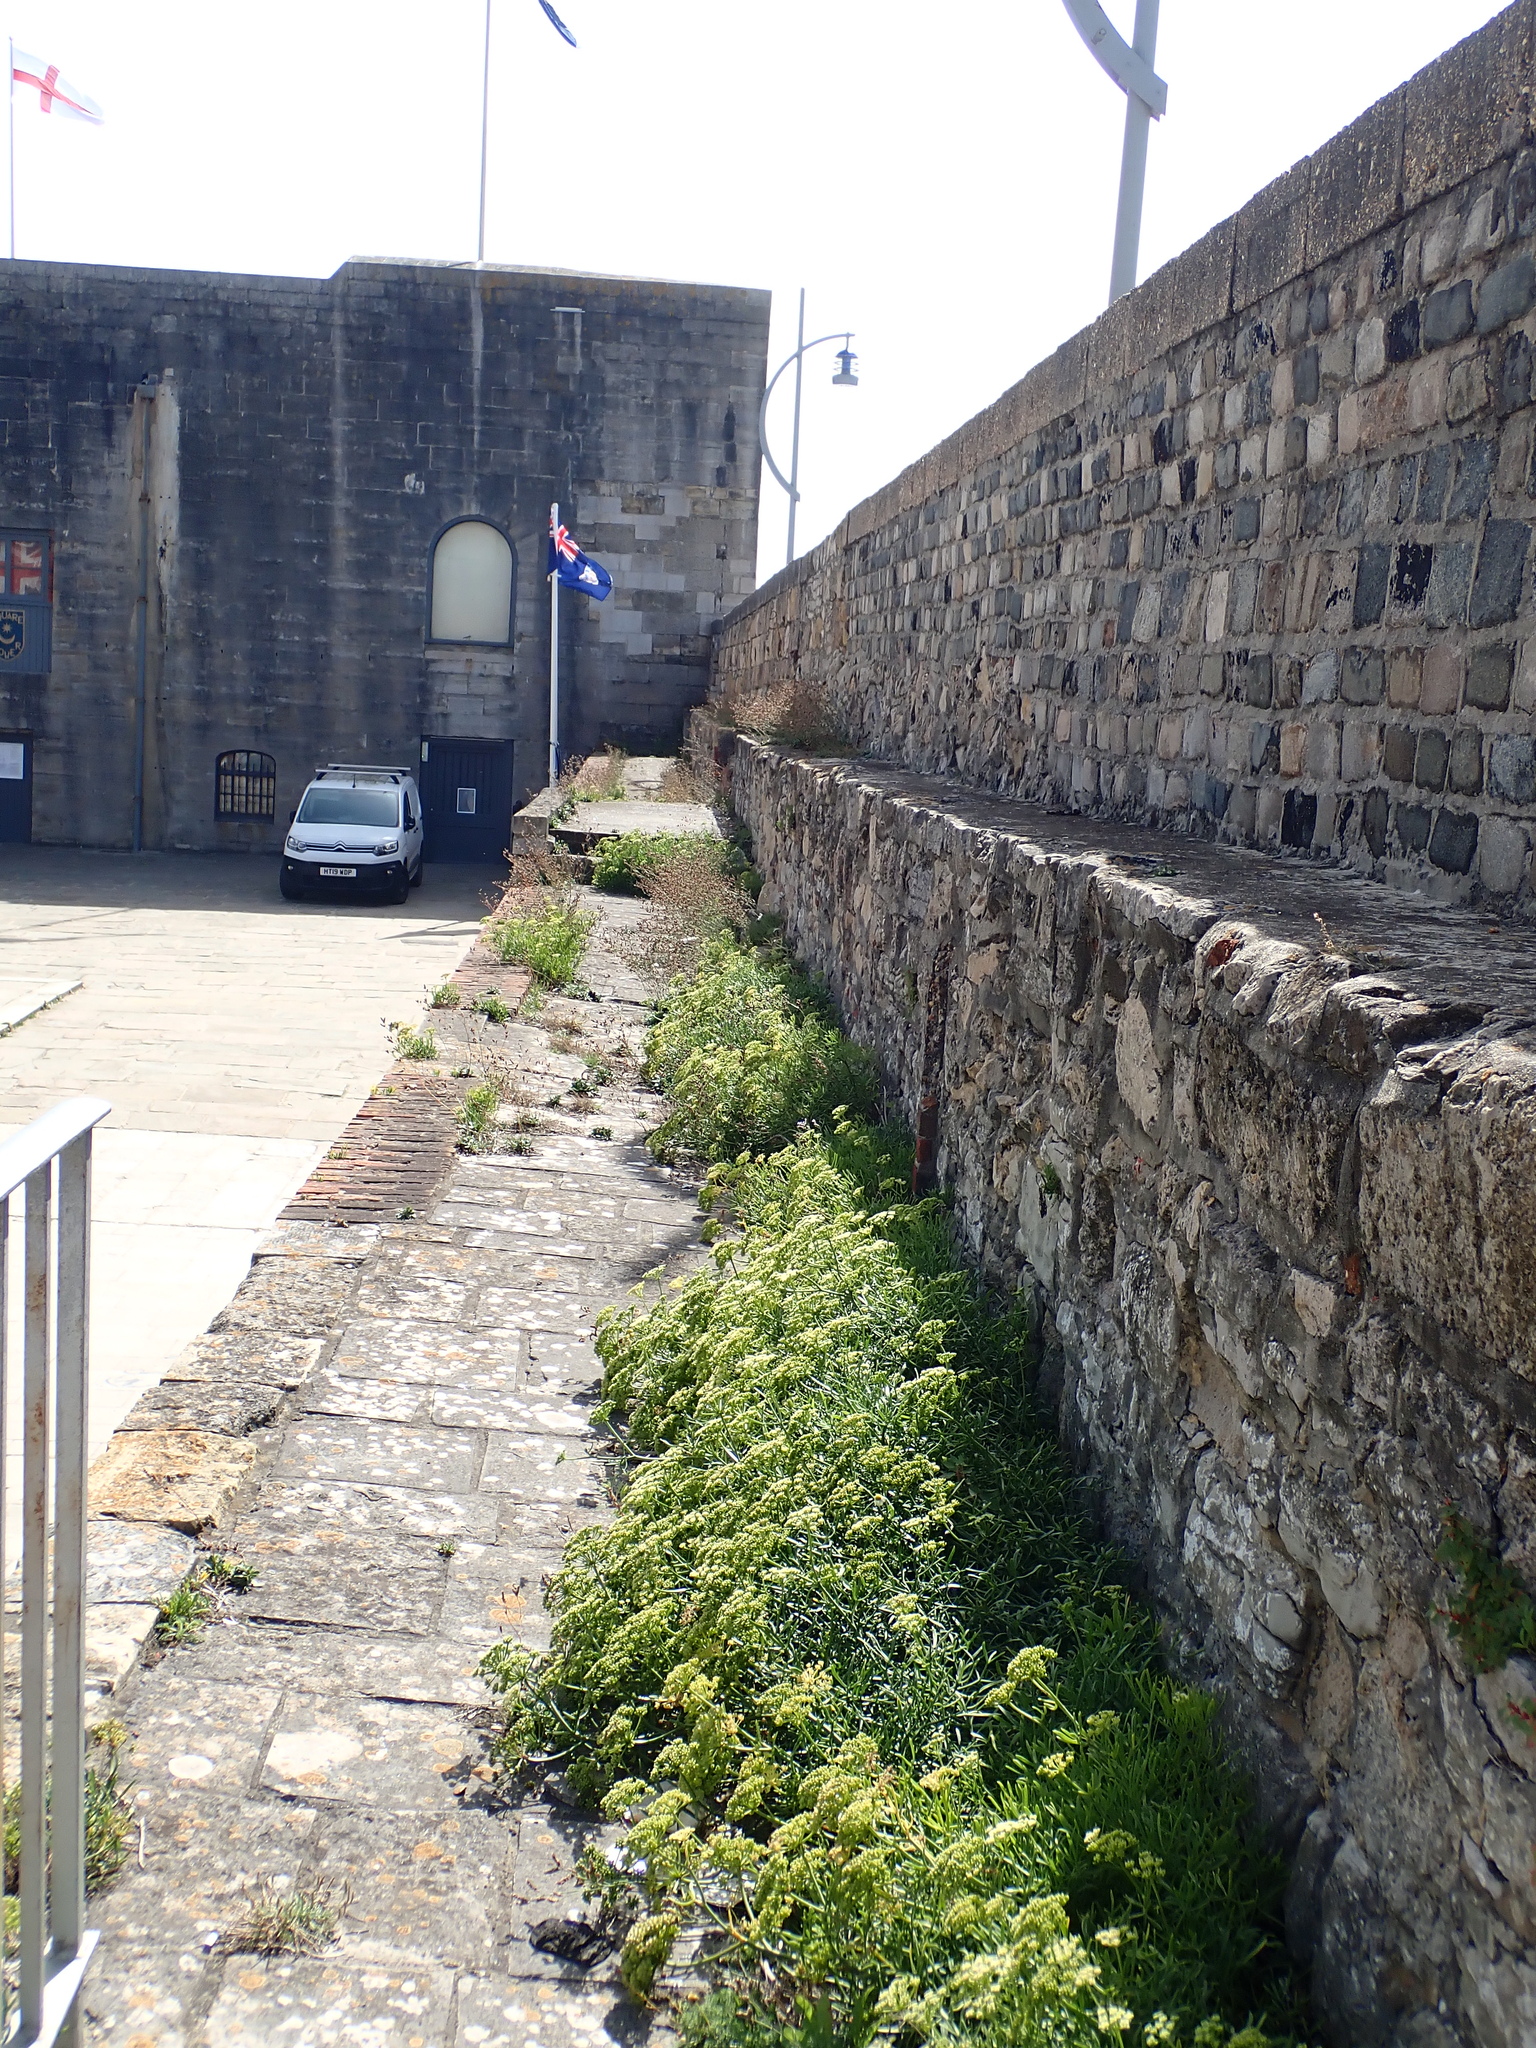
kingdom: Plantae
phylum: Tracheophyta
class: Magnoliopsida
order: Apiales
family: Apiaceae
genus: Crithmum
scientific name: Crithmum maritimum
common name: Rock samphire
